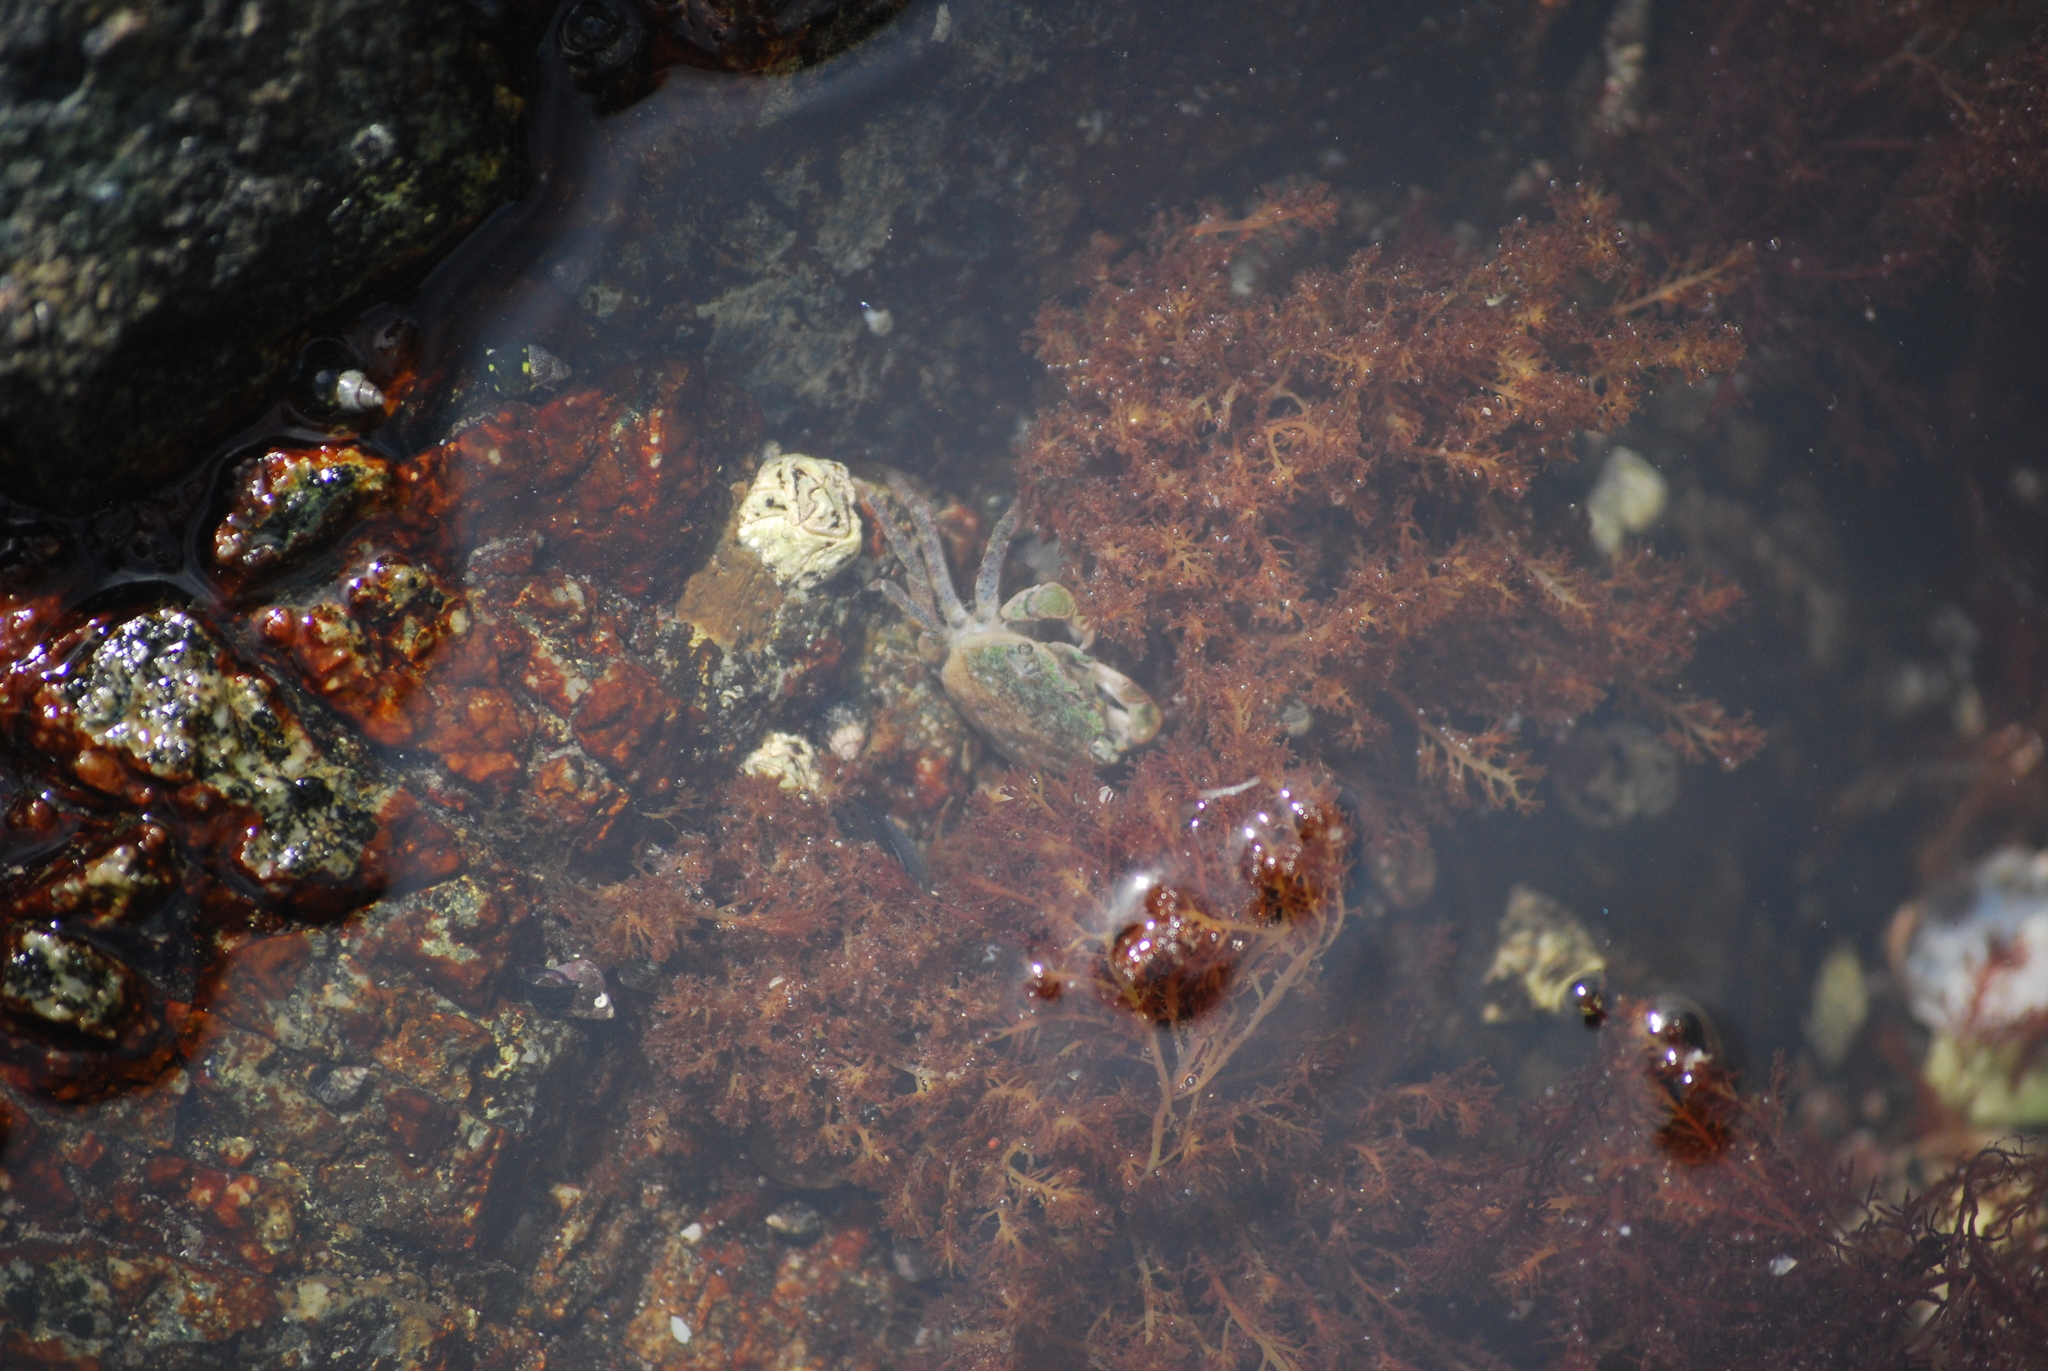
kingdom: Animalia
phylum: Arthropoda
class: Malacostraca
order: Decapoda
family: Varunidae
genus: Hemigrapsus
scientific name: Hemigrapsus oregonensis
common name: Yellow shore crab
